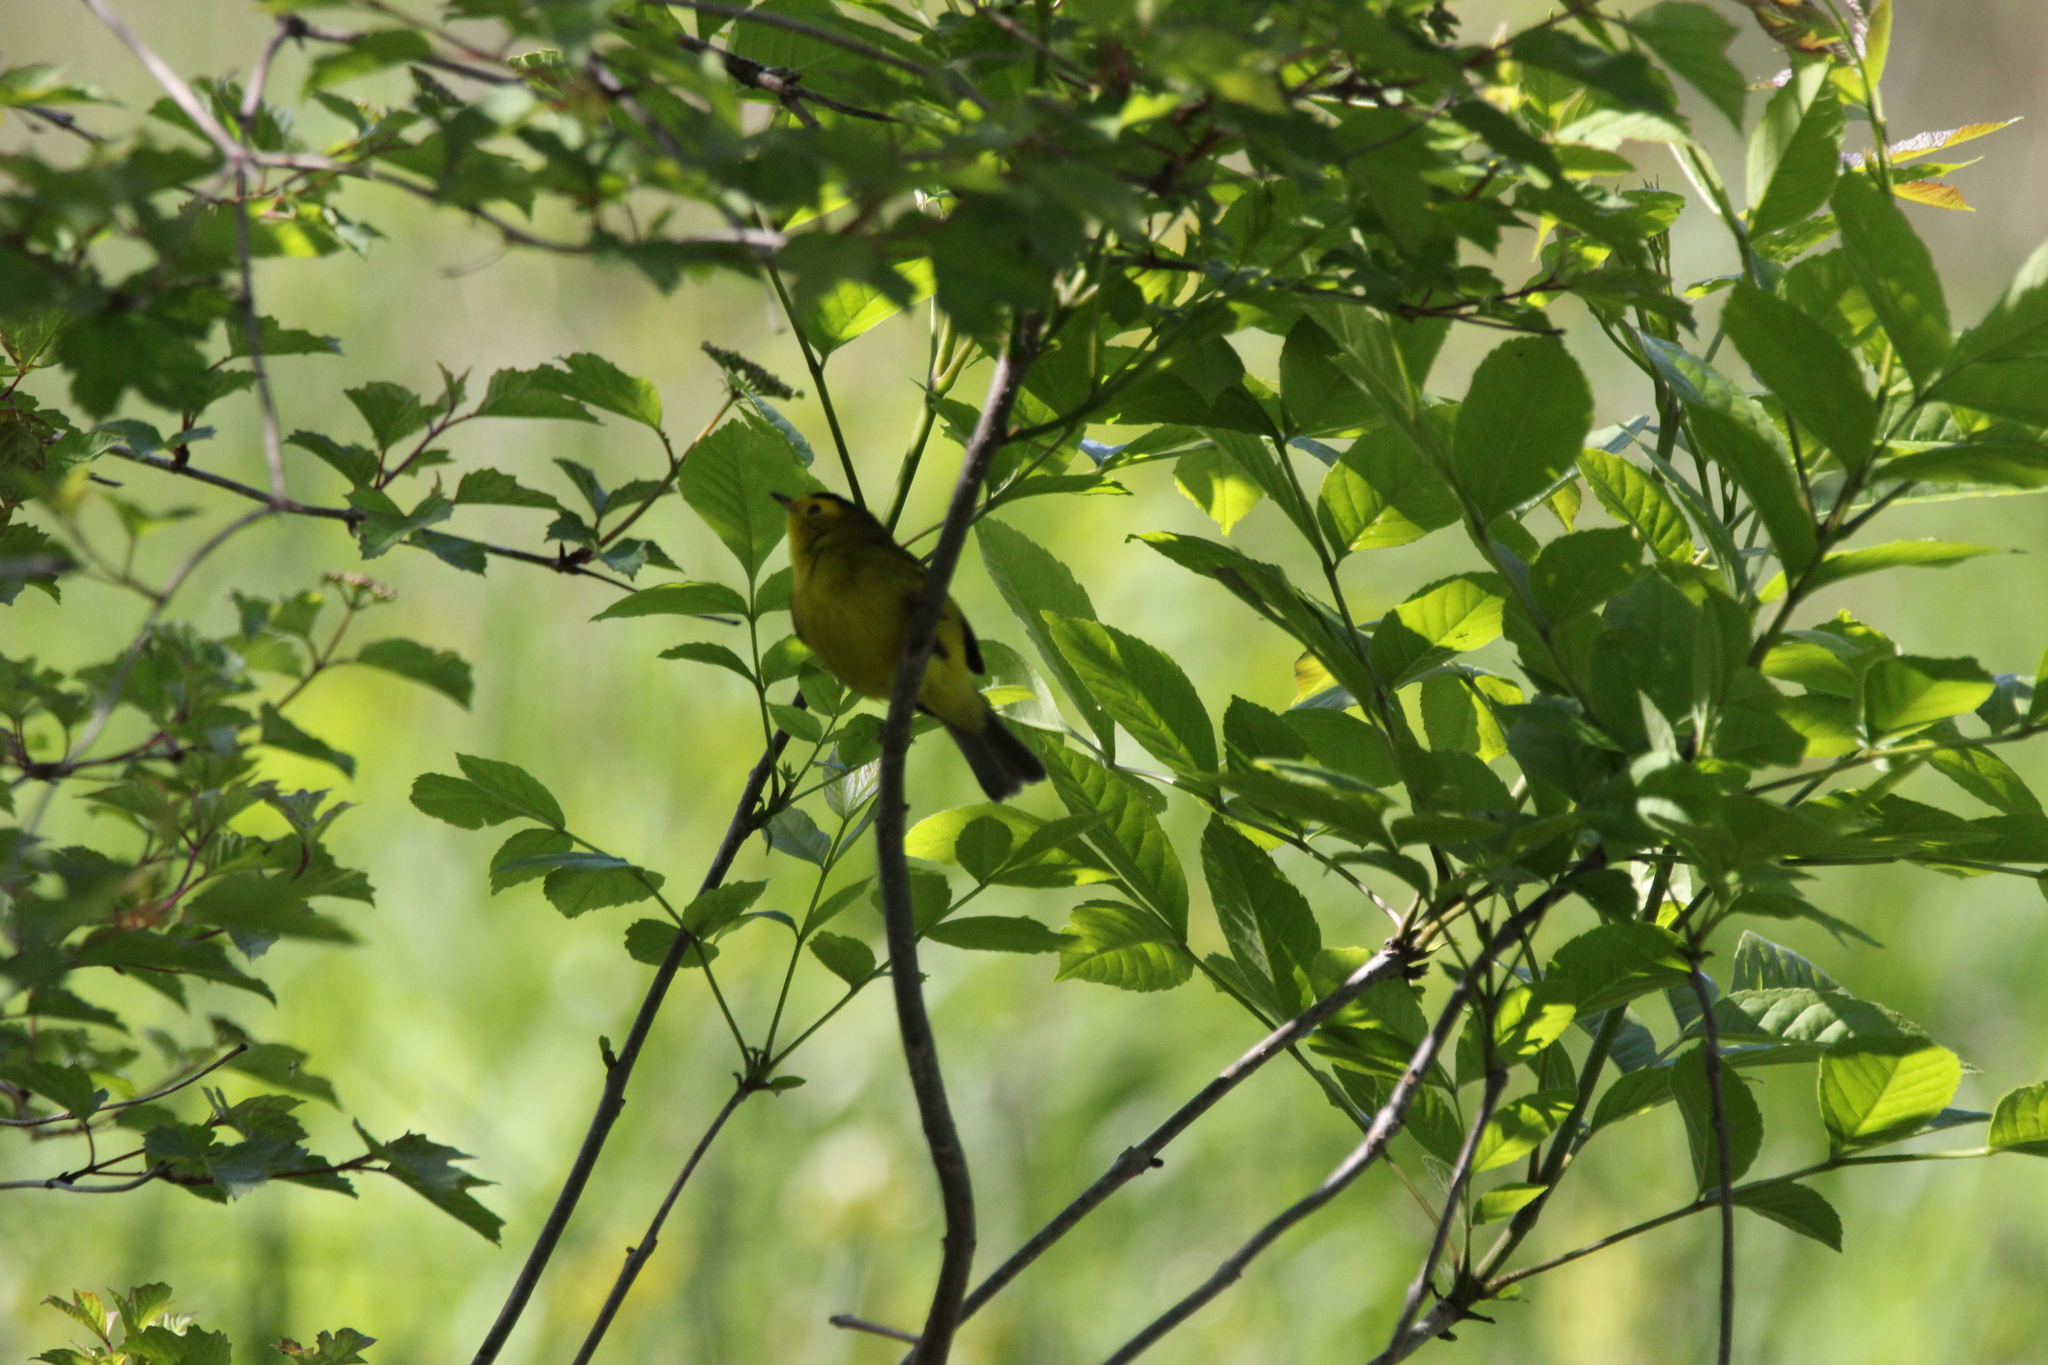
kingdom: Animalia
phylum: Chordata
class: Aves
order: Passeriformes
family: Parulidae
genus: Cardellina
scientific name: Cardellina pusilla
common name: Wilson's warbler
